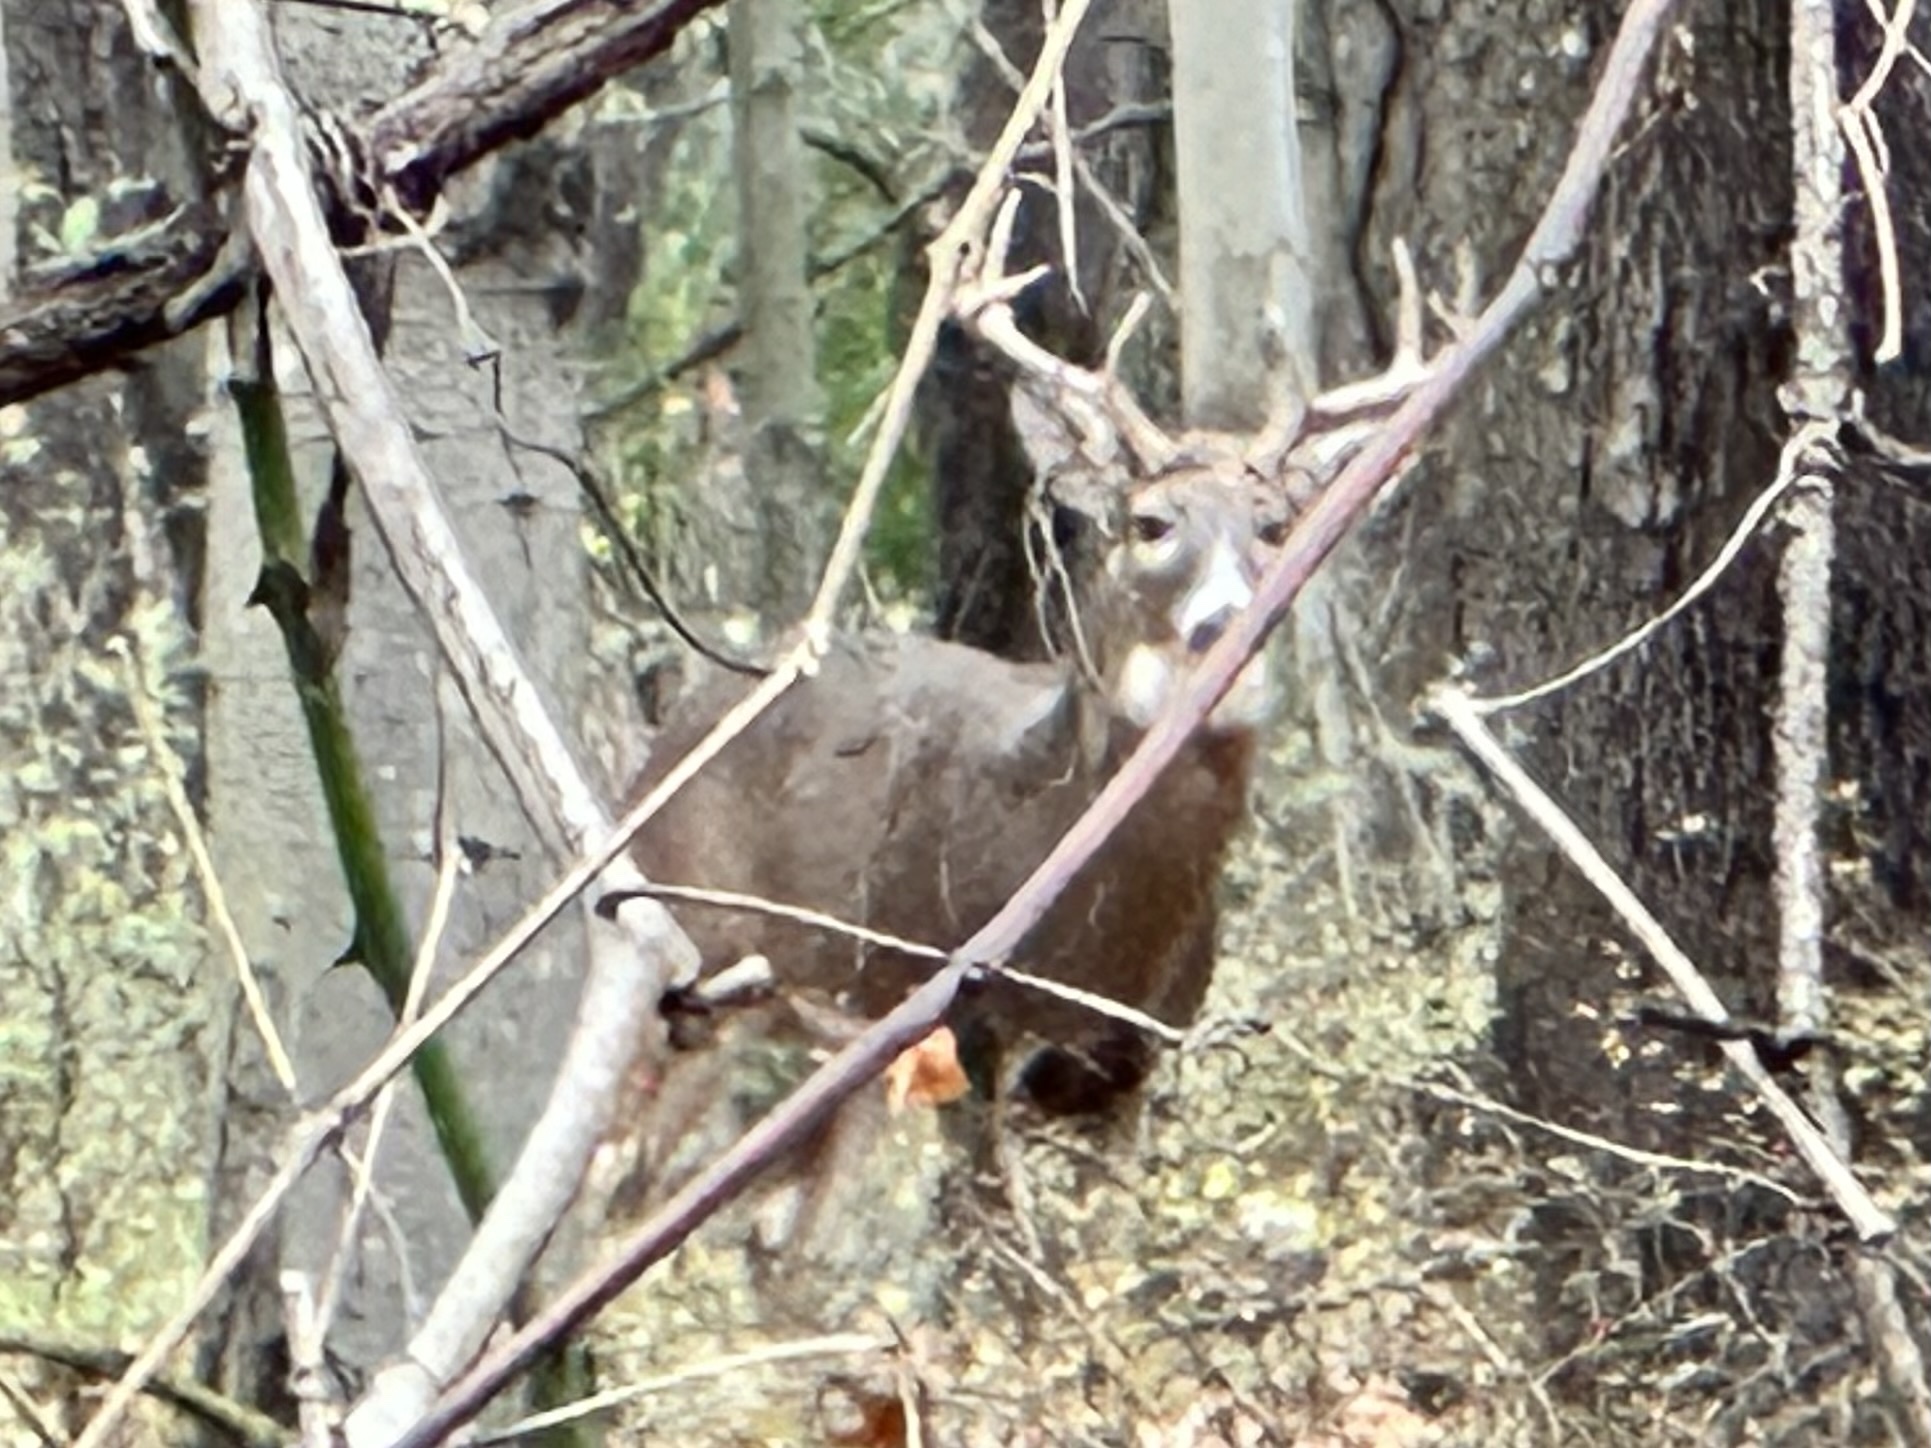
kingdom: Animalia
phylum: Chordata
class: Mammalia
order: Artiodactyla
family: Cervidae
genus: Odocoileus
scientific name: Odocoileus virginianus
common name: White-tailed deer
